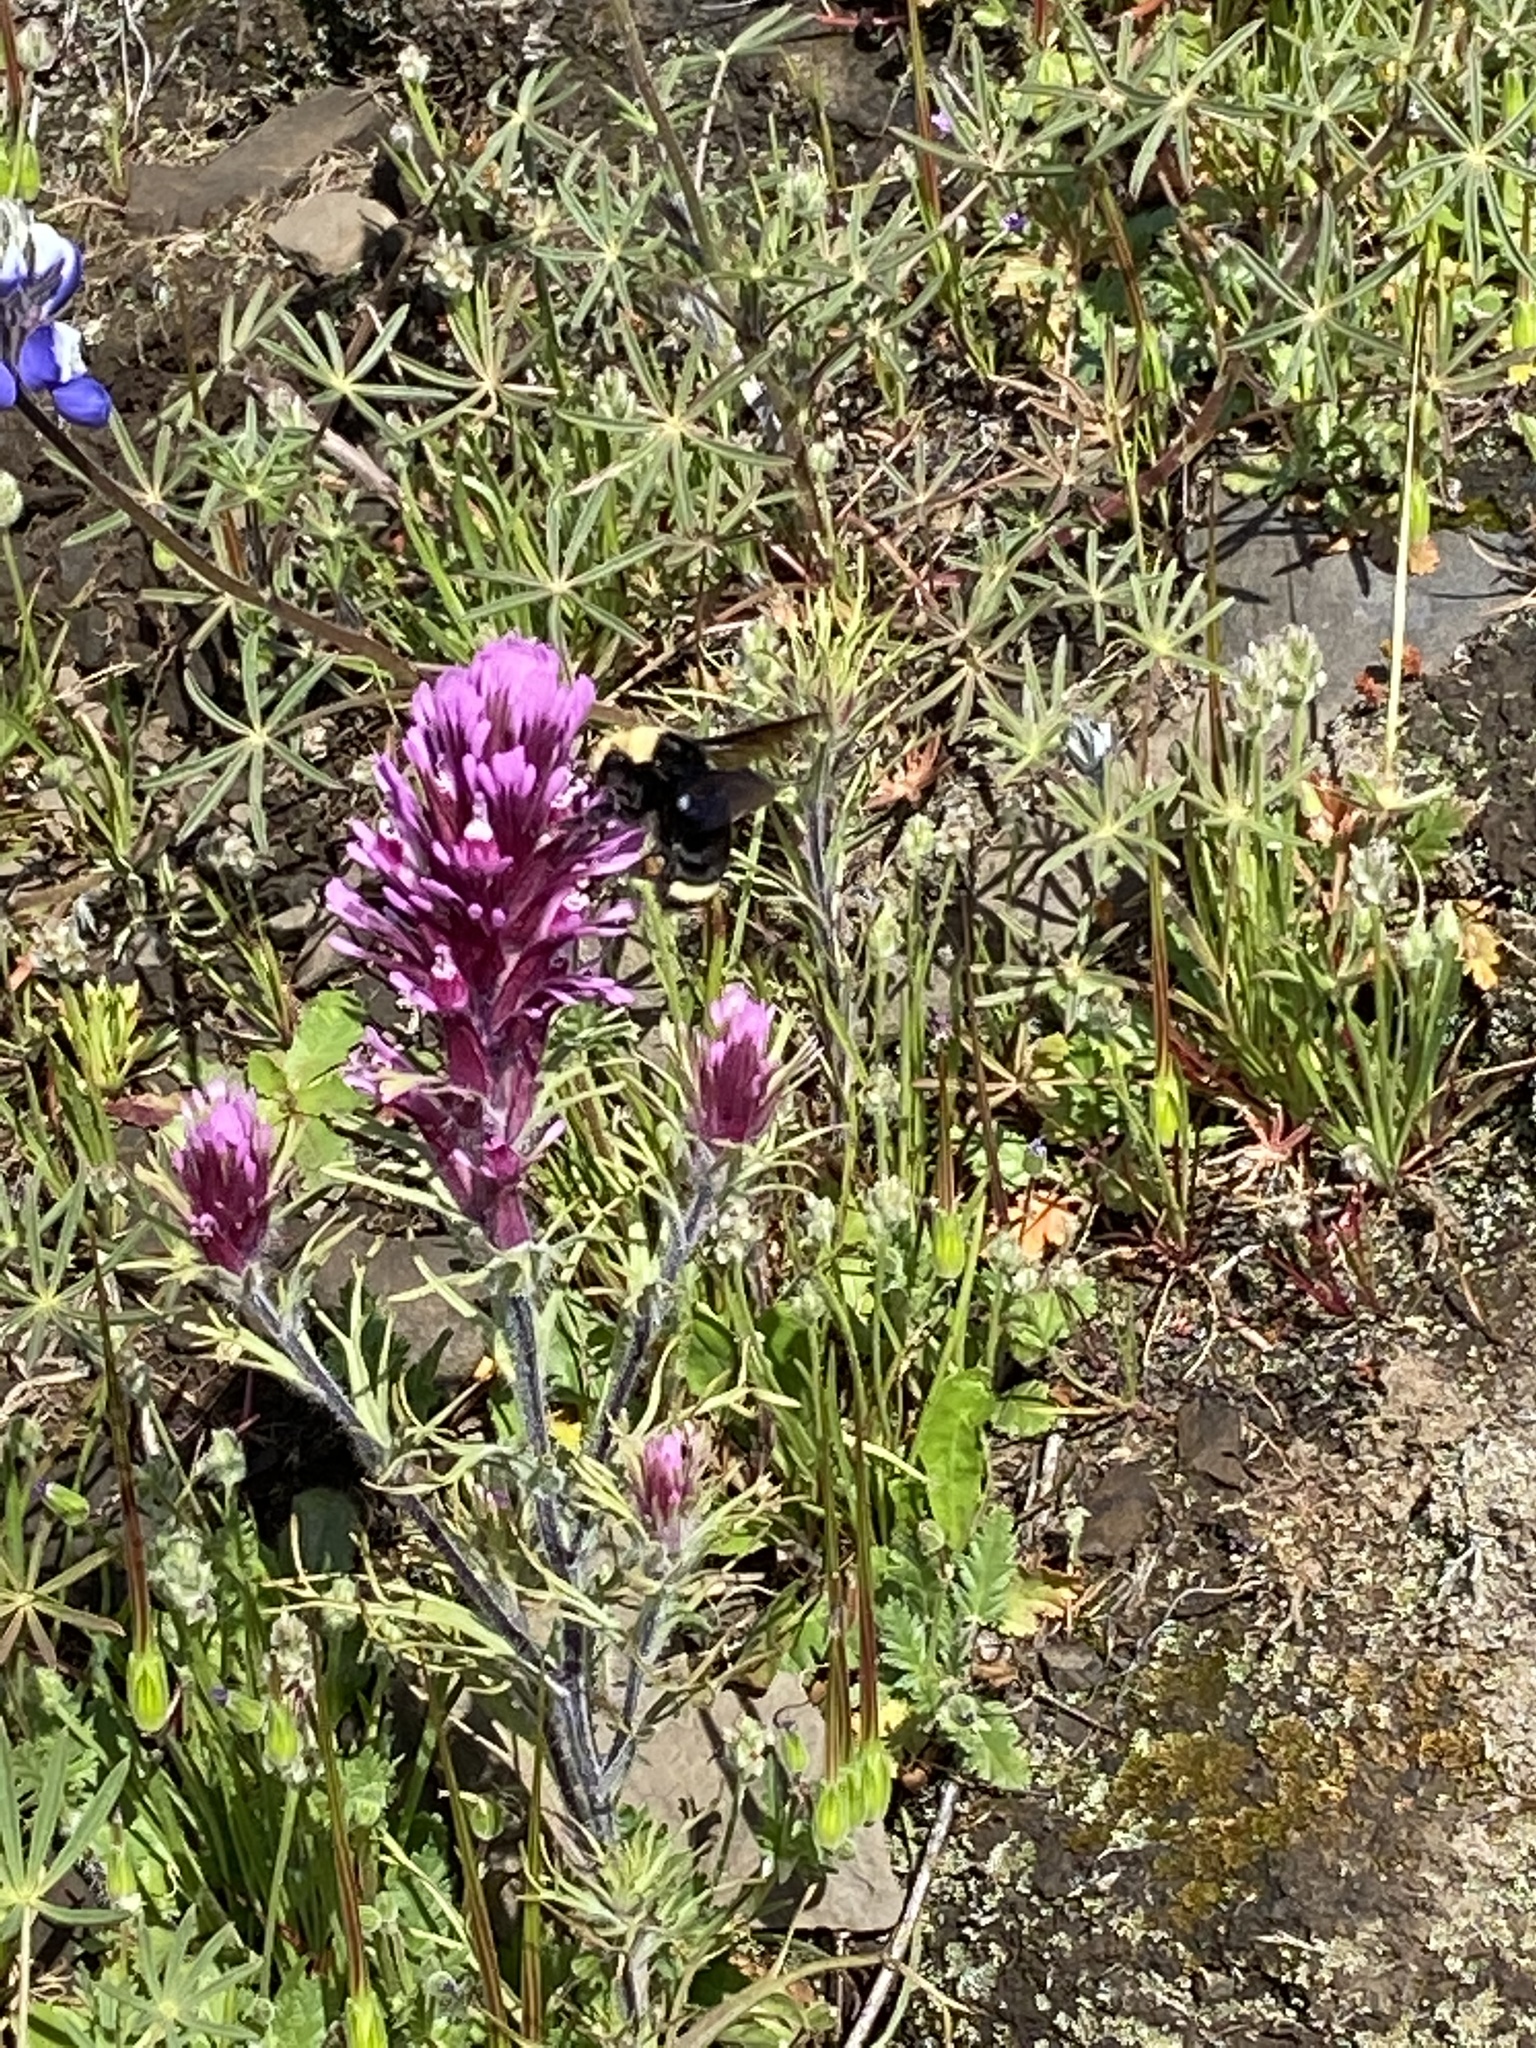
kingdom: Animalia
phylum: Arthropoda
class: Insecta
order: Hymenoptera
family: Apidae
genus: Bombus
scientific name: Bombus vosnesenskii
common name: Vosnesensky bumble bee
